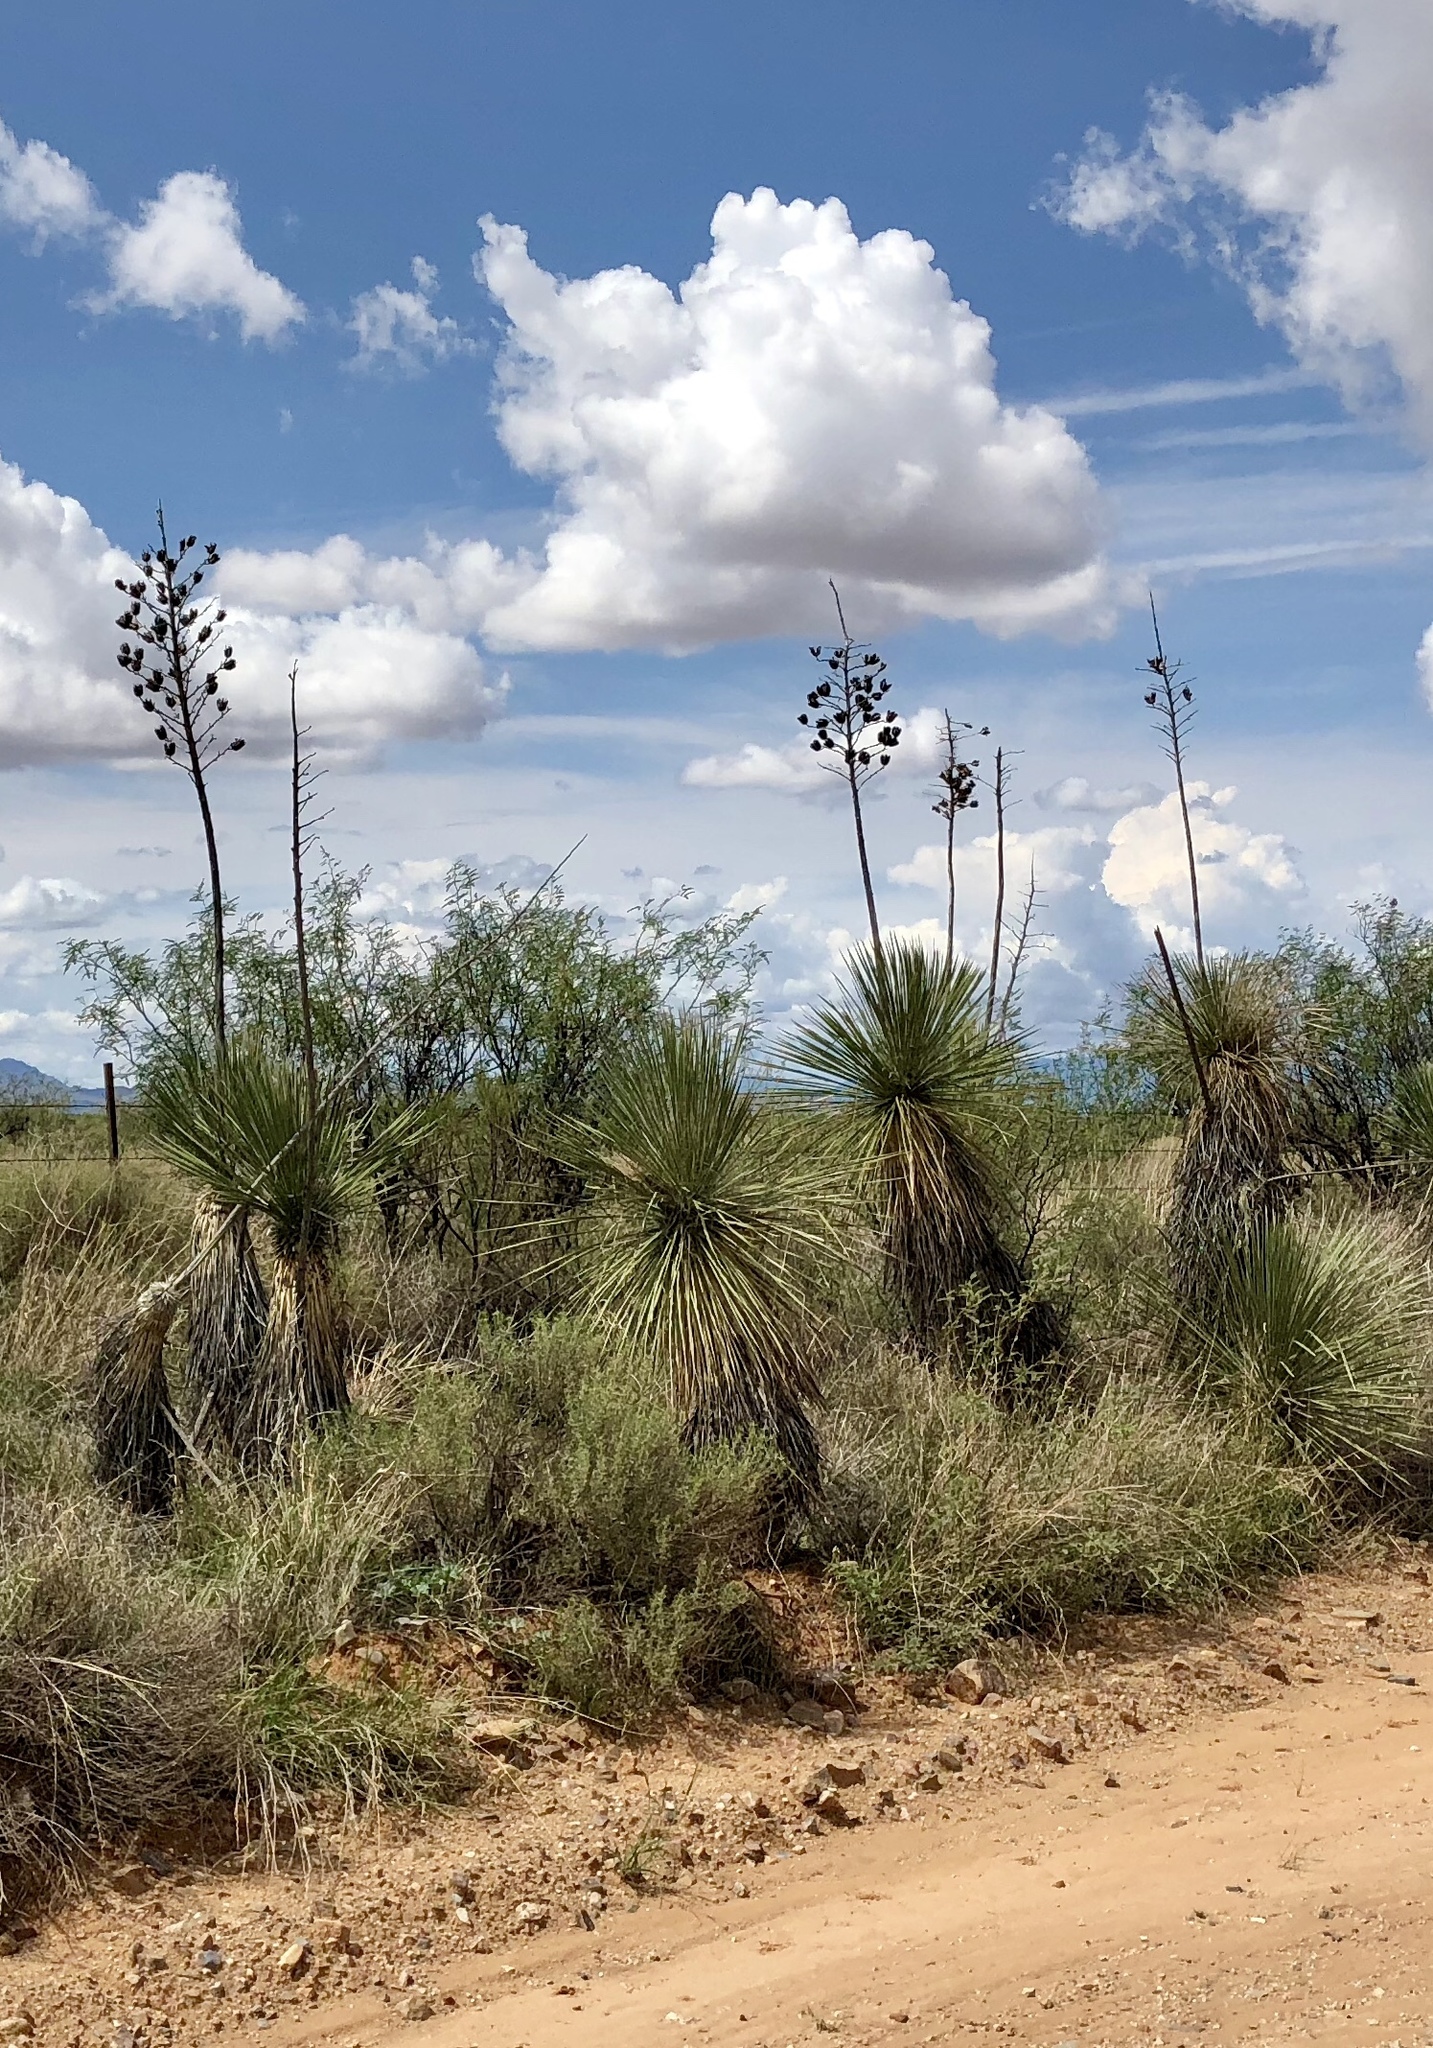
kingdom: Plantae
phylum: Tracheophyta
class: Liliopsida
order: Asparagales
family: Asparagaceae
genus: Yucca
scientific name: Yucca elata
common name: Palmella
